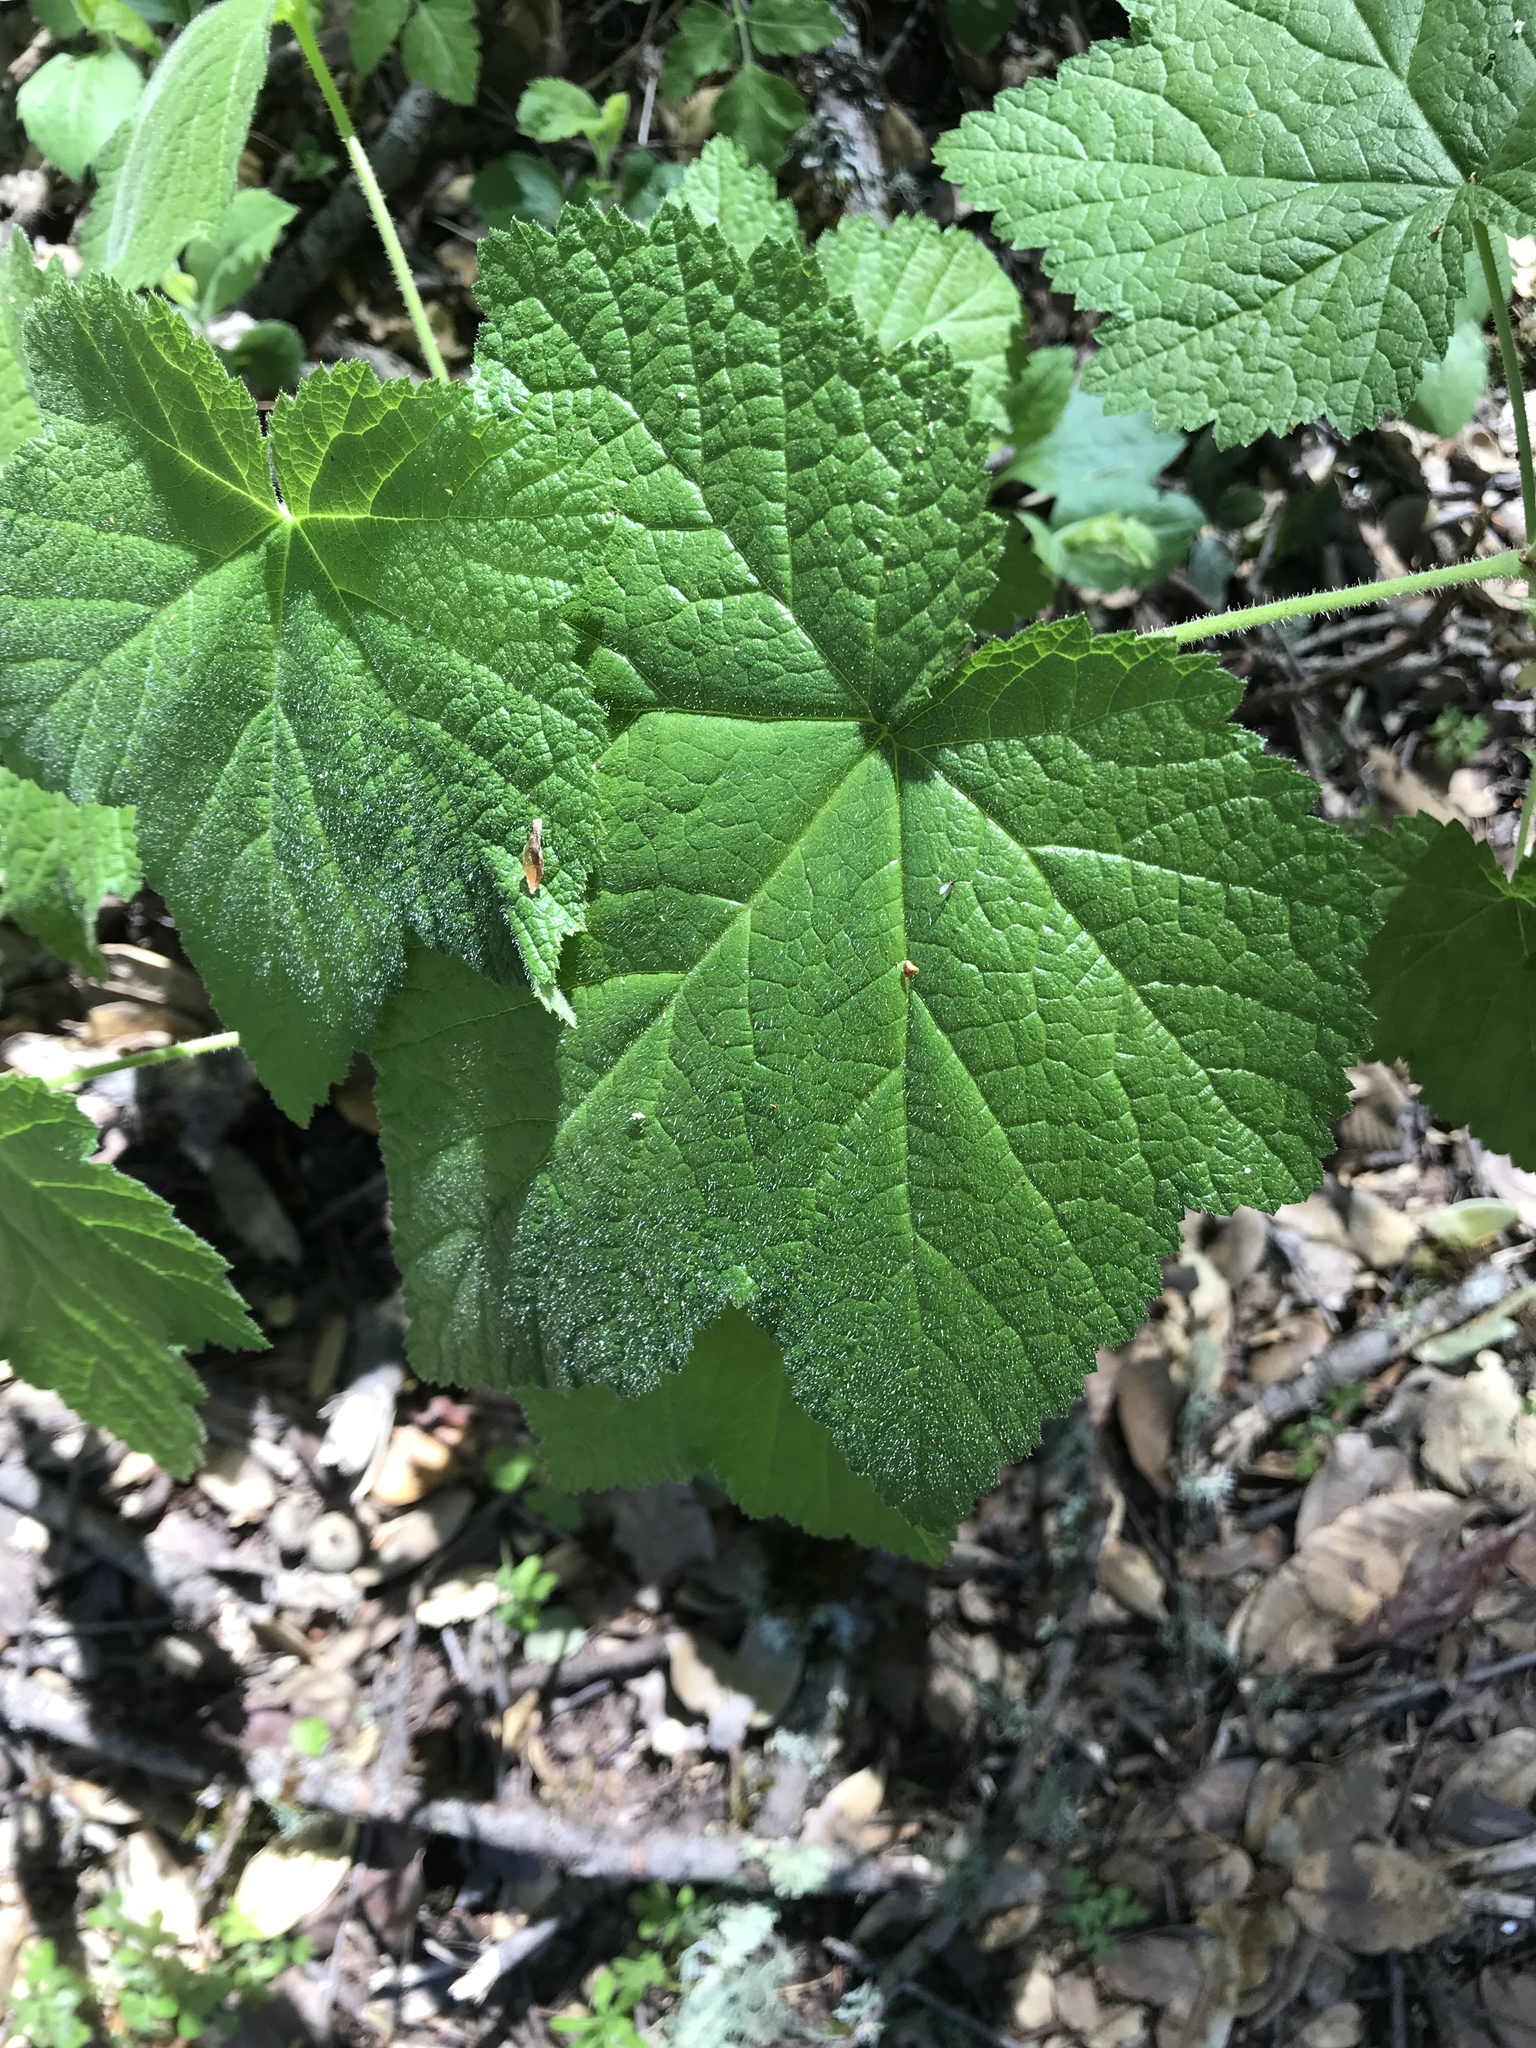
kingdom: Plantae
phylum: Tracheophyta
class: Magnoliopsida
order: Rosales
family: Rosaceae
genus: Rubus
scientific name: Rubus parviflorus
